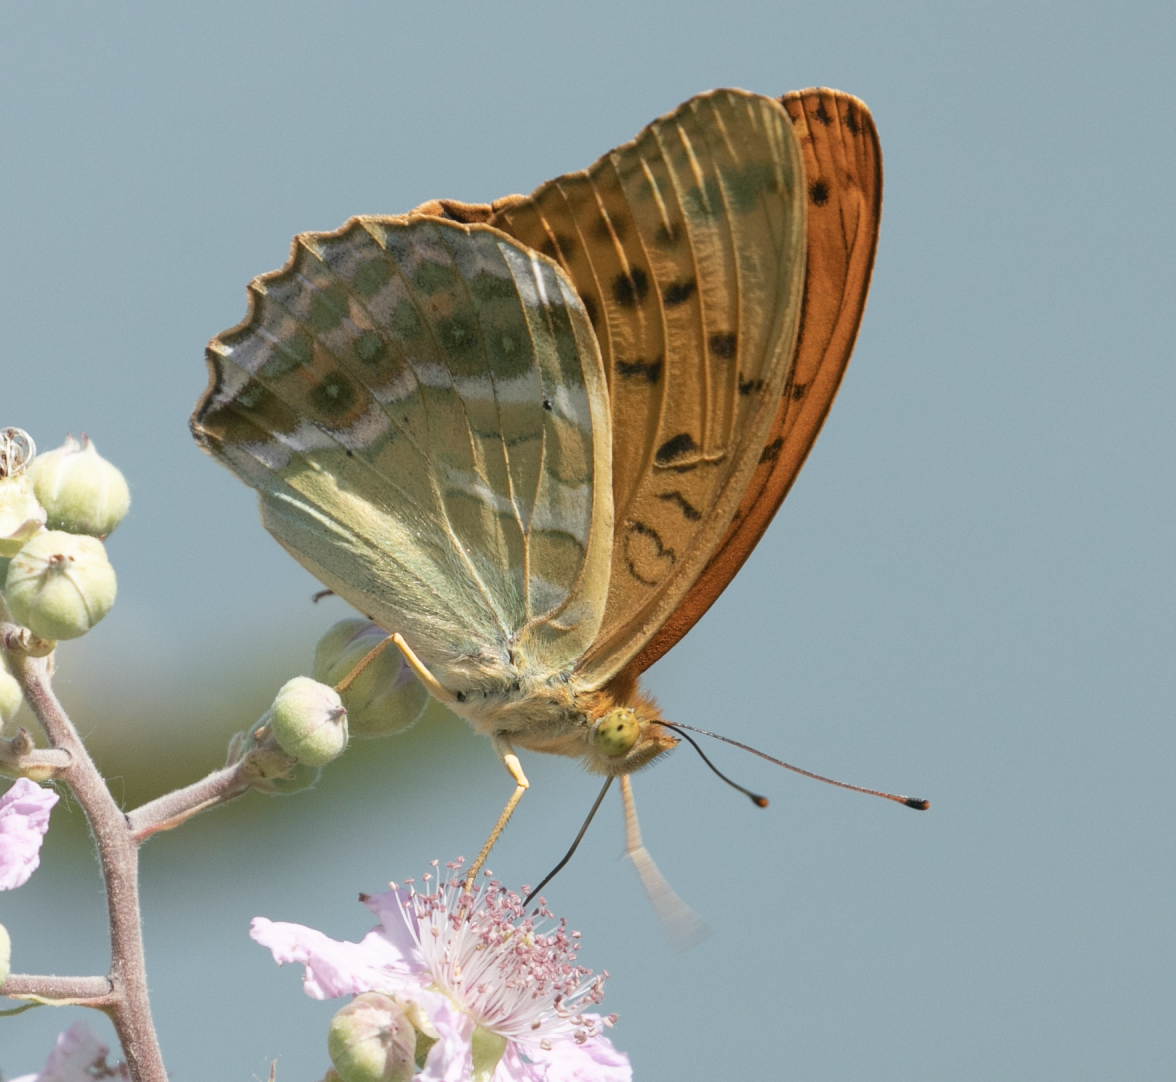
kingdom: Animalia
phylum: Arthropoda
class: Insecta
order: Lepidoptera
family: Nymphalidae
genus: Argynnis
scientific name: Argynnis paphia
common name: Silver-washed fritillary
